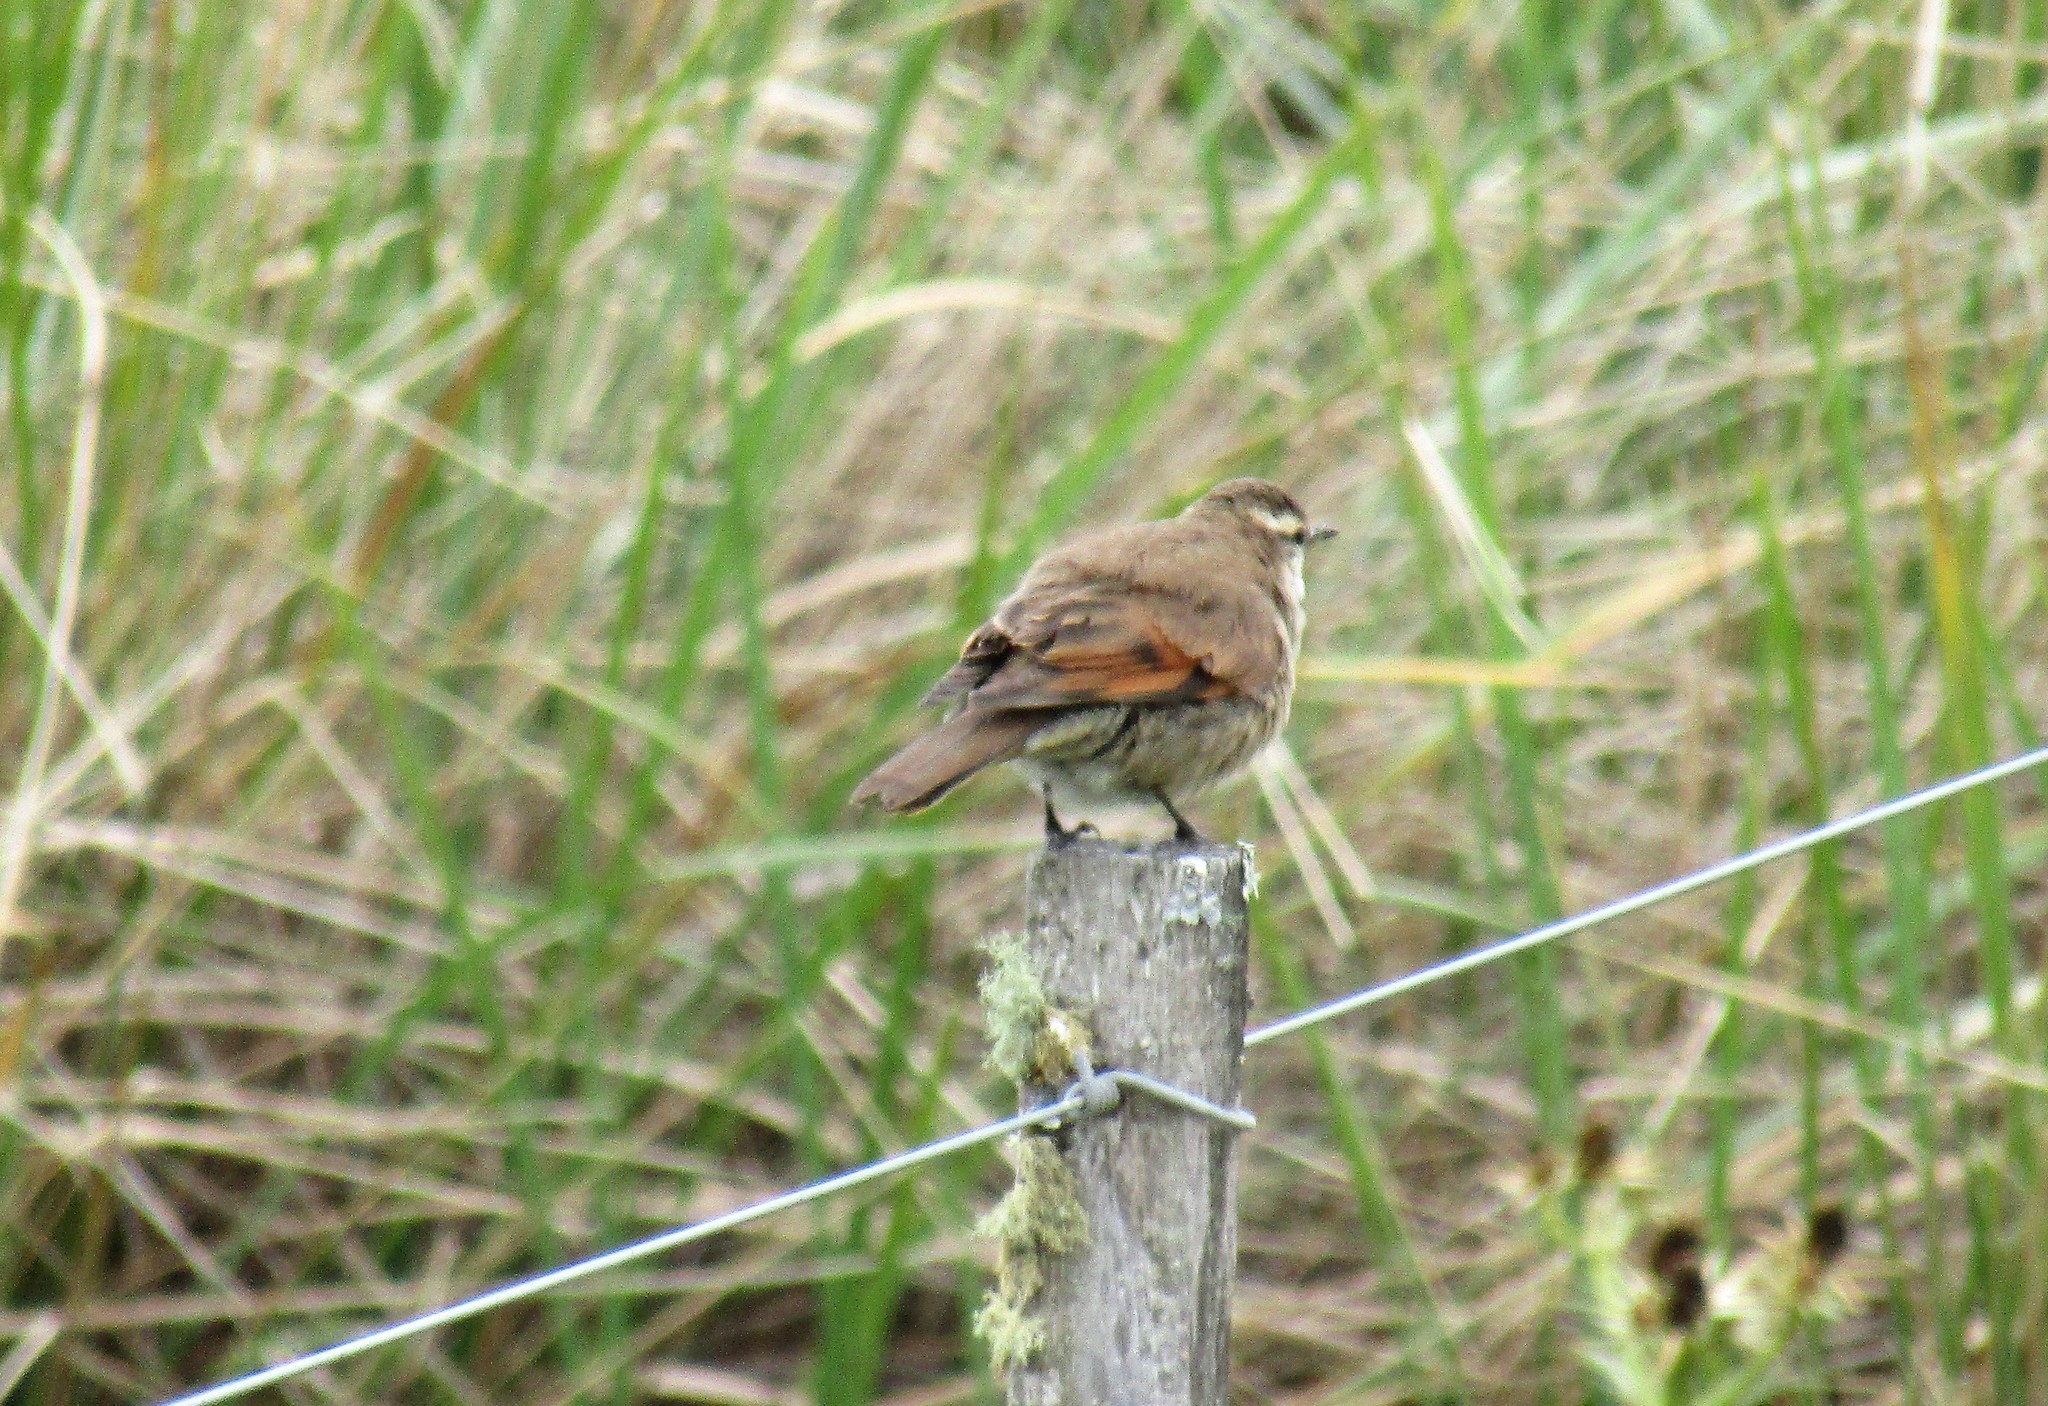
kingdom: Animalia
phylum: Chordata
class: Aves
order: Passeriformes
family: Furnariidae
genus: Cinclodes
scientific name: Cinclodes comechingonus
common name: Cordoba cinclodes
